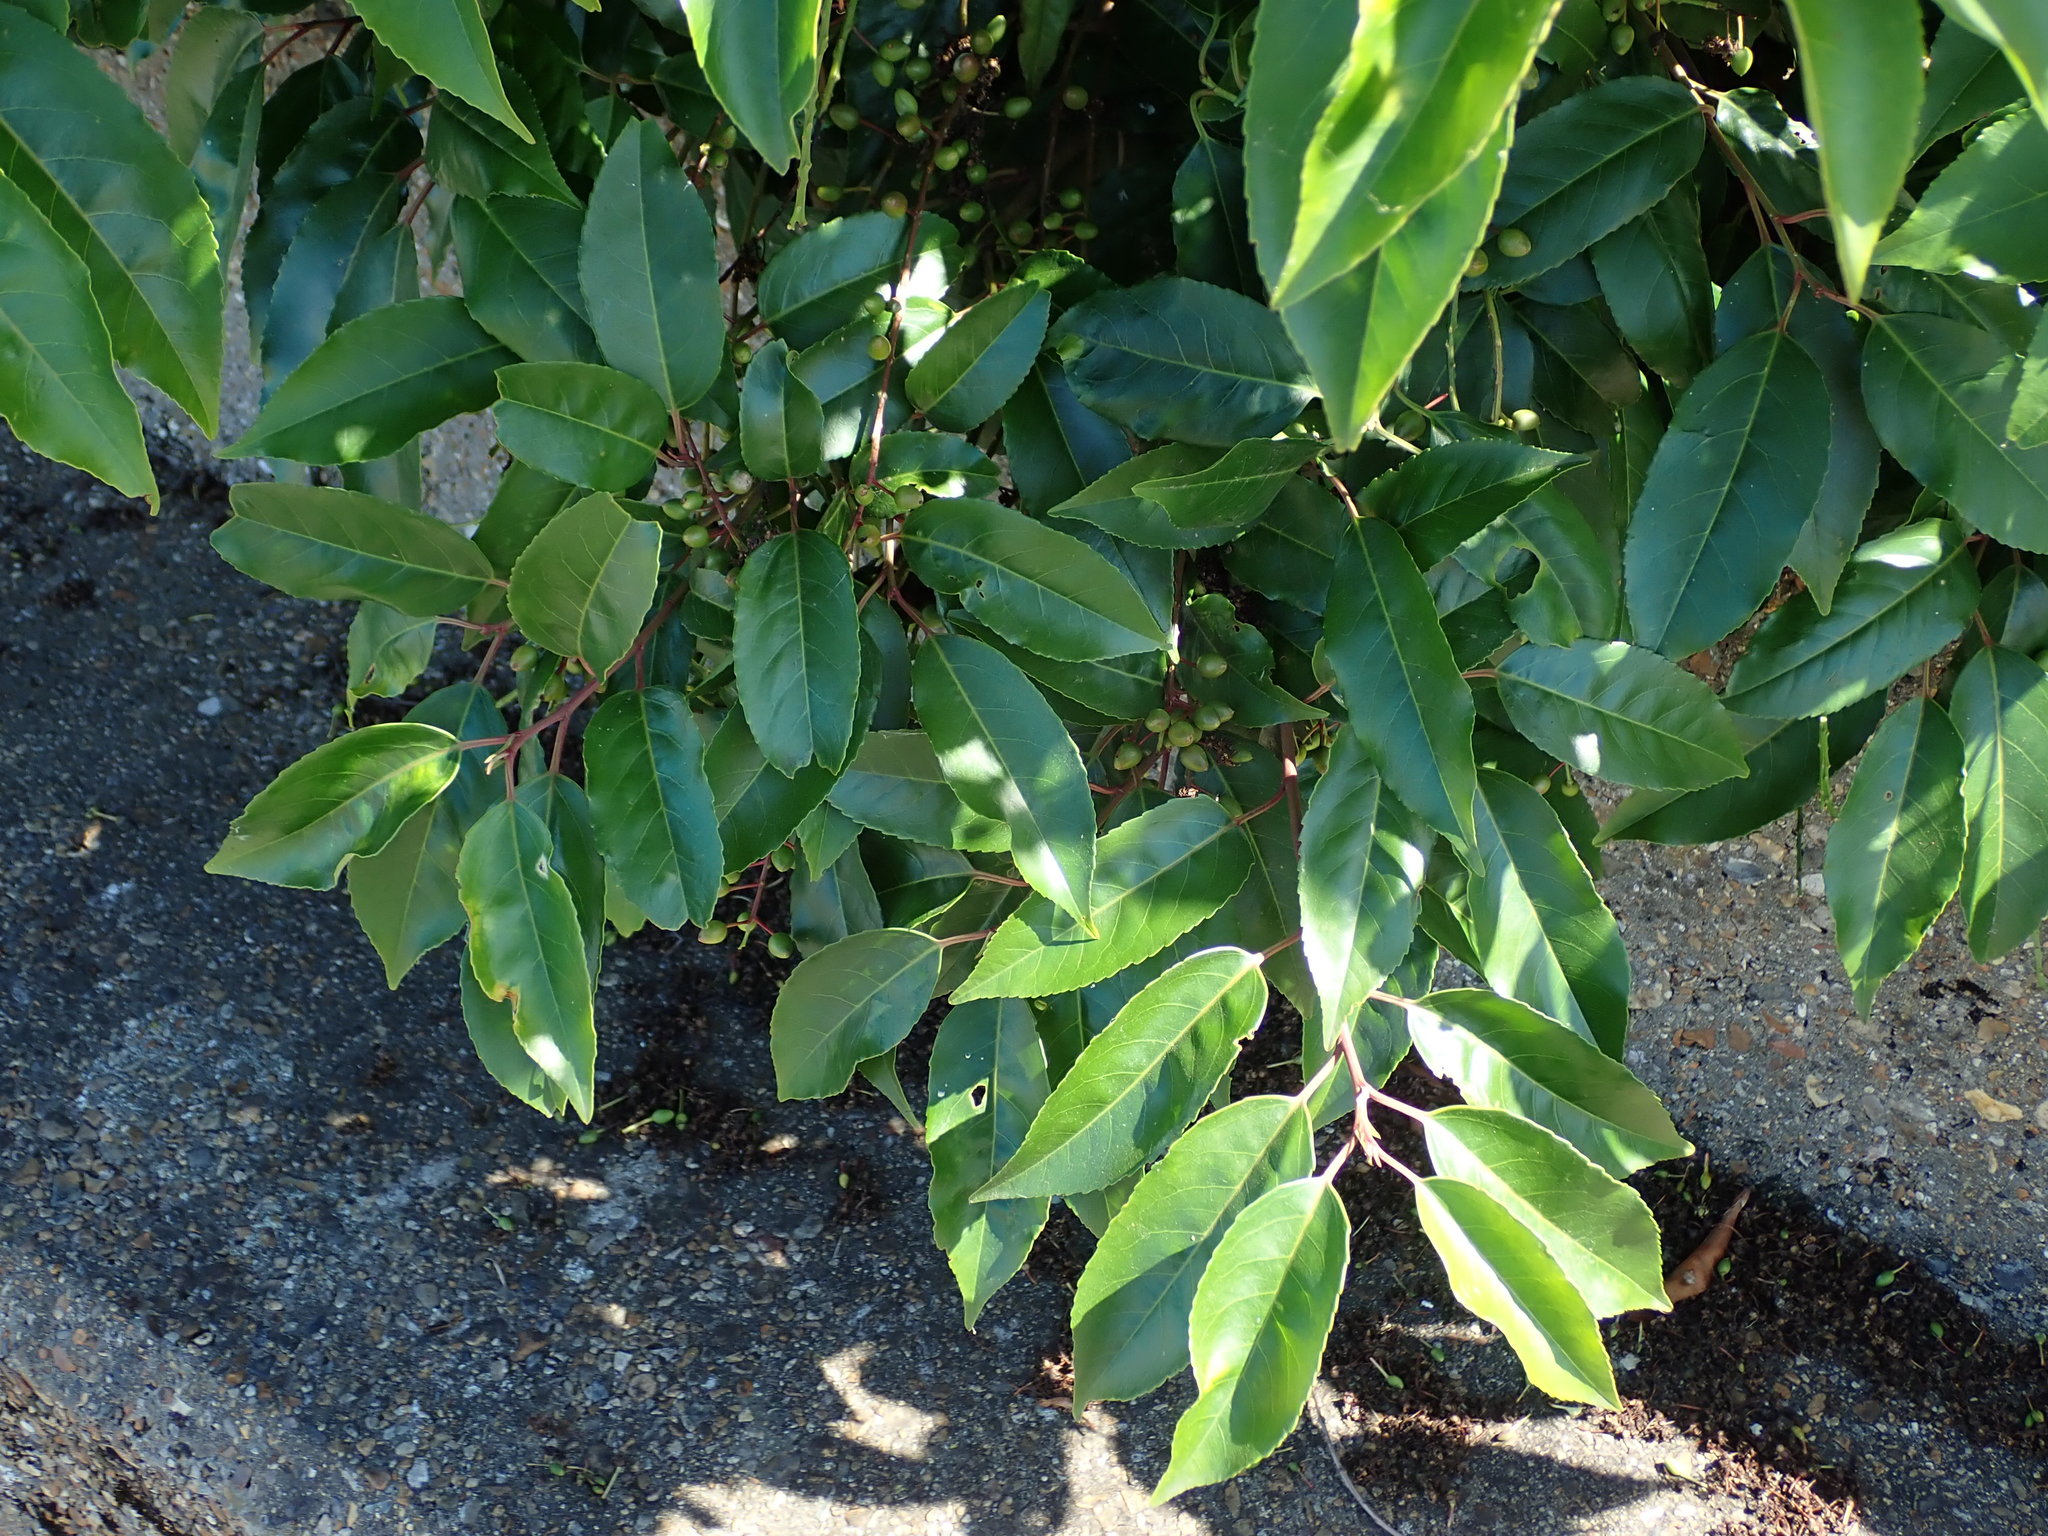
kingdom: Plantae
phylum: Tracheophyta
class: Magnoliopsida
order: Rosales
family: Rosaceae
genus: Prunus
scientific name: Prunus lusitanica
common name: Portugal laurel
